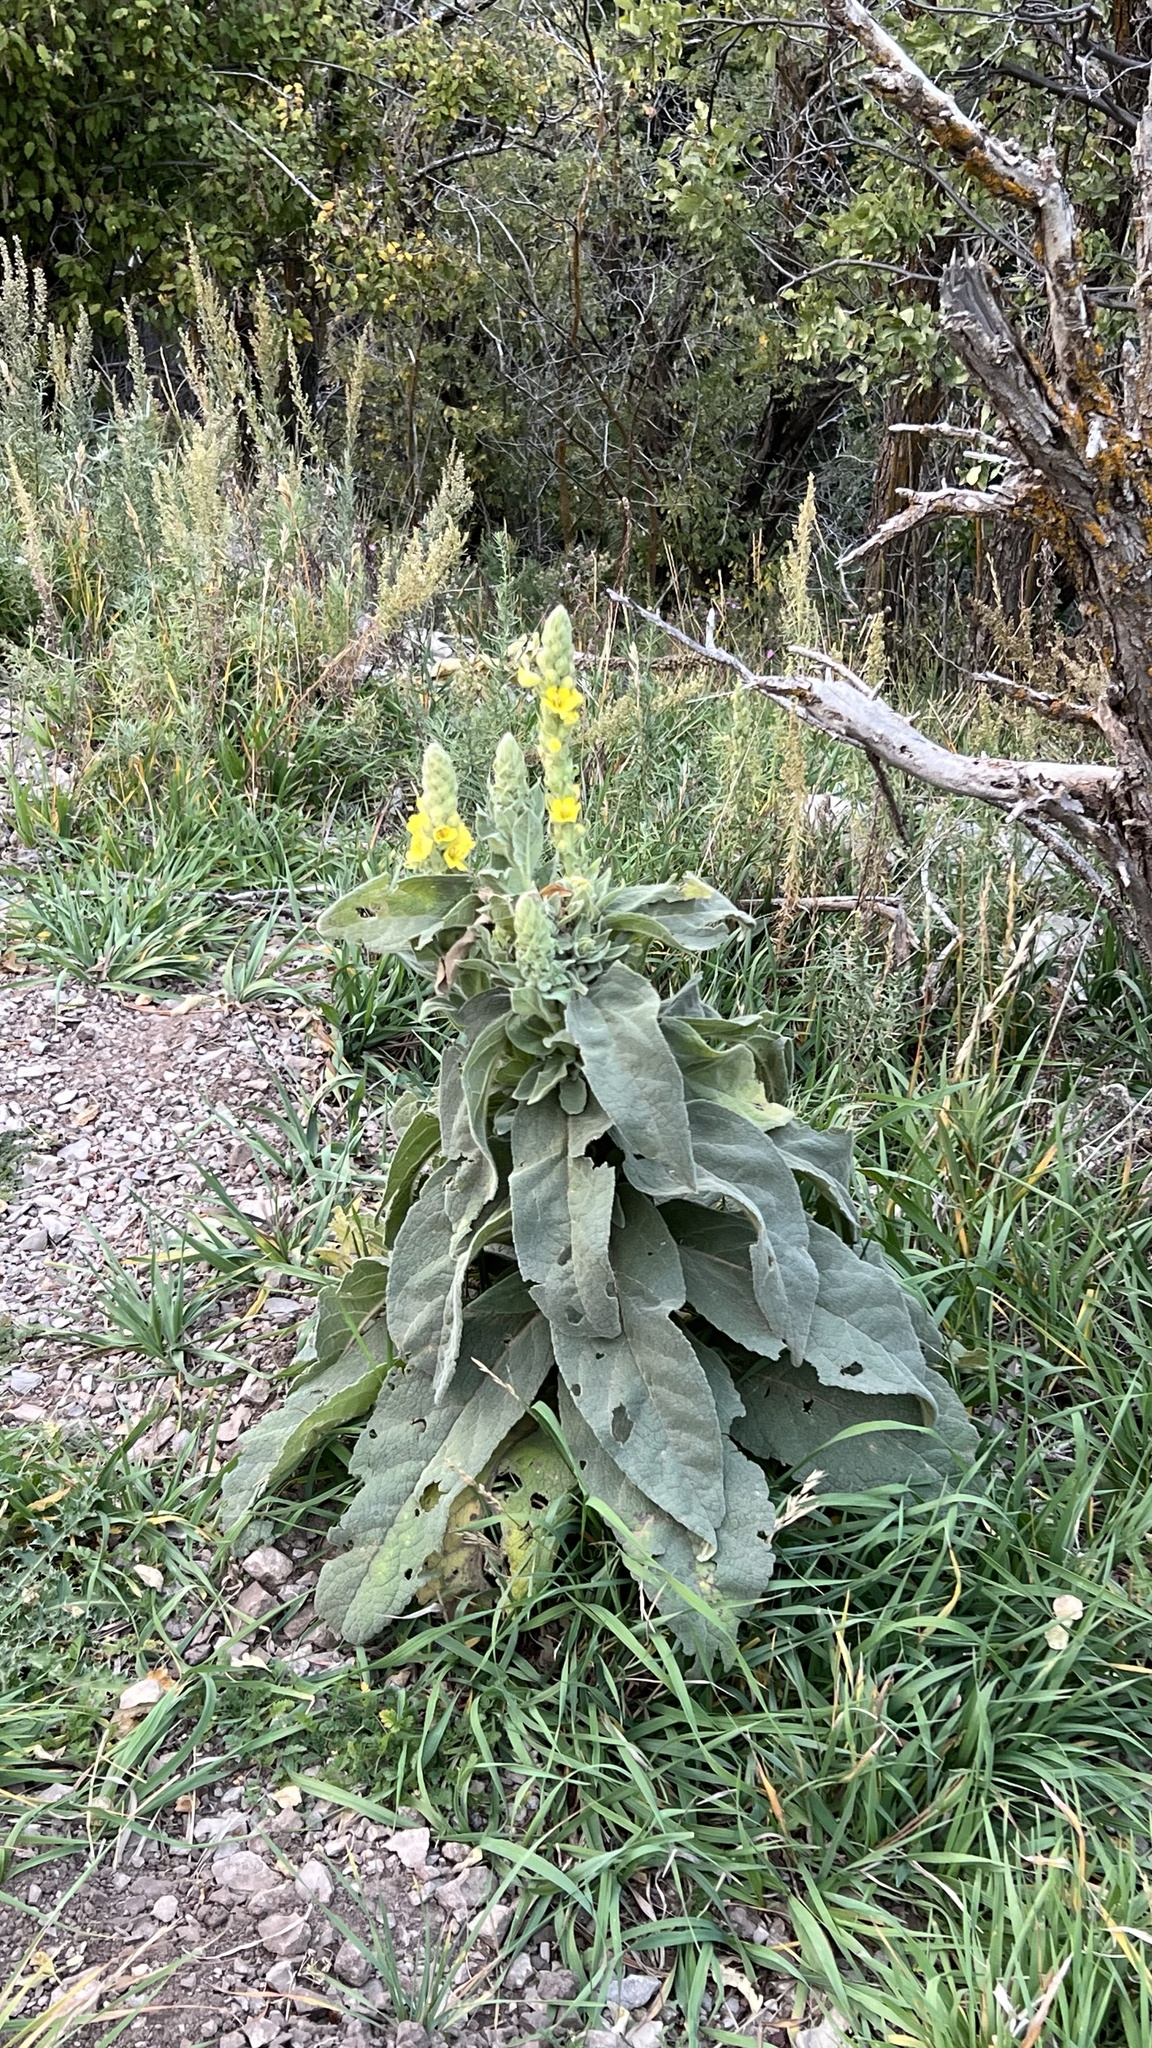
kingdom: Plantae
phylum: Tracheophyta
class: Magnoliopsida
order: Lamiales
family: Scrophulariaceae
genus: Verbascum
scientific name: Verbascum thapsus
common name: Common mullein
